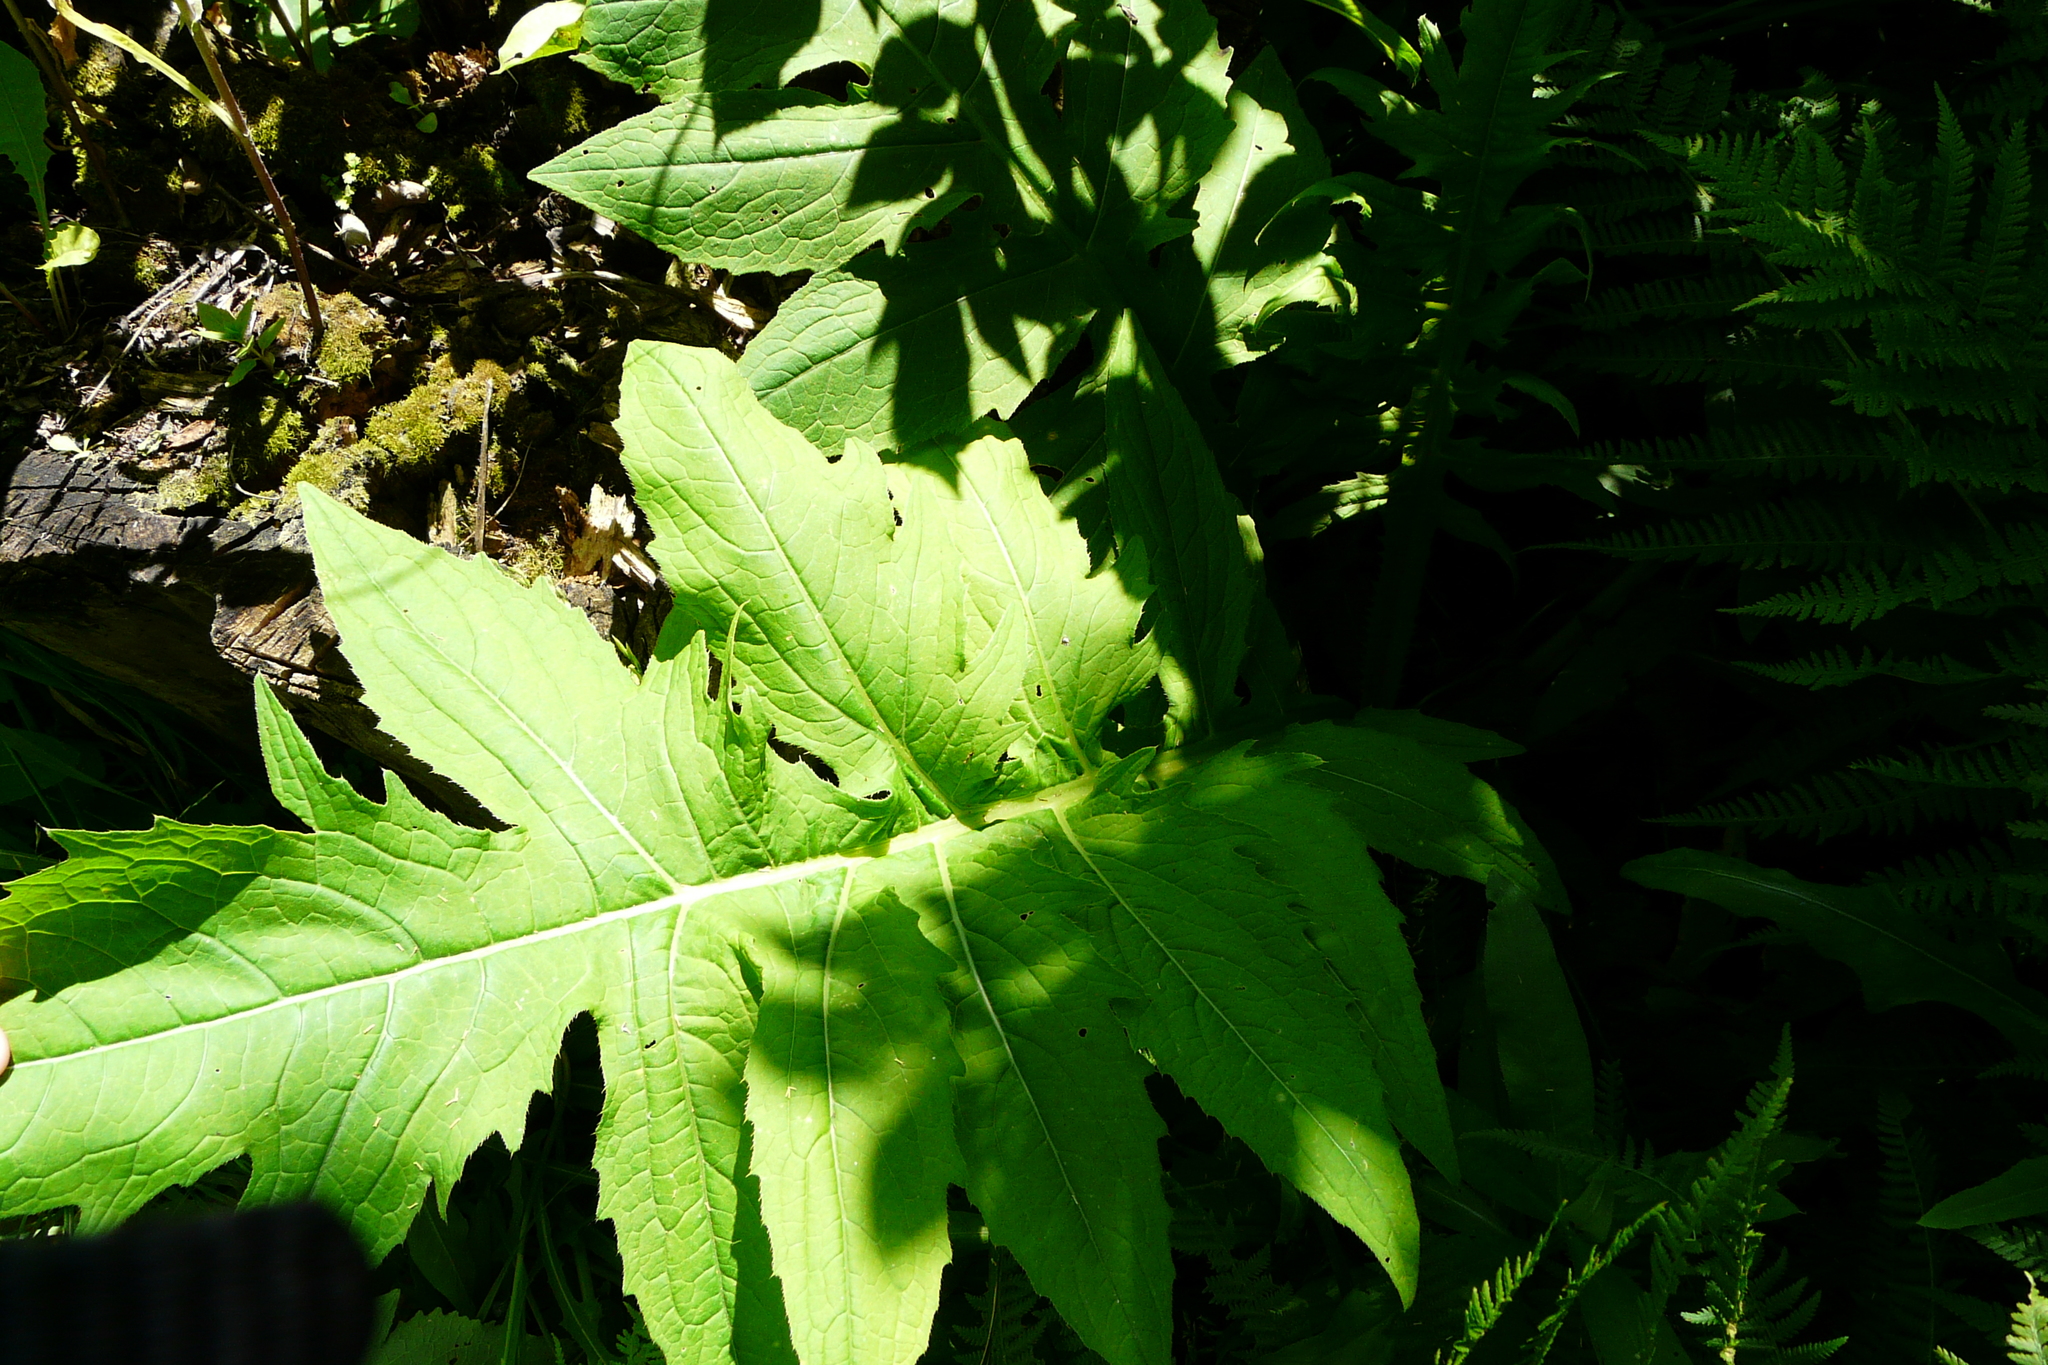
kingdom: Plantae
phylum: Tracheophyta
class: Magnoliopsida
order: Asterales
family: Asteraceae
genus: Cirsium
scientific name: Cirsium oleraceum
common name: Cabbage thistle
